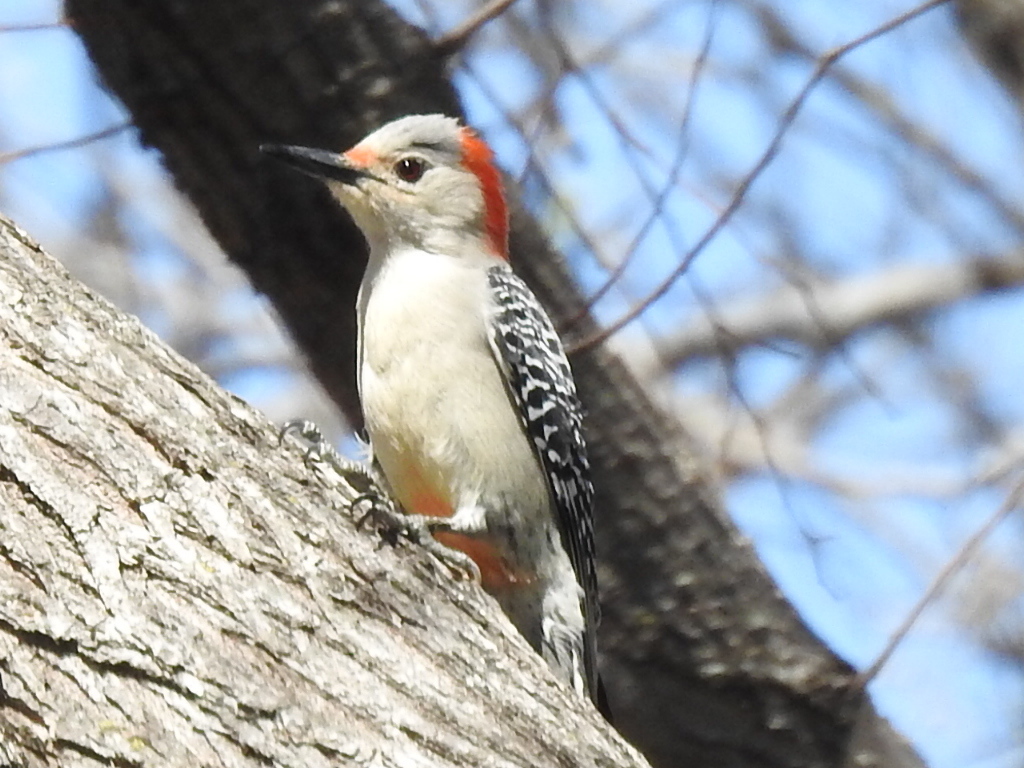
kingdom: Animalia
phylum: Chordata
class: Aves
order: Piciformes
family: Picidae
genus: Melanerpes
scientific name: Melanerpes carolinus
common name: Red-bellied woodpecker
